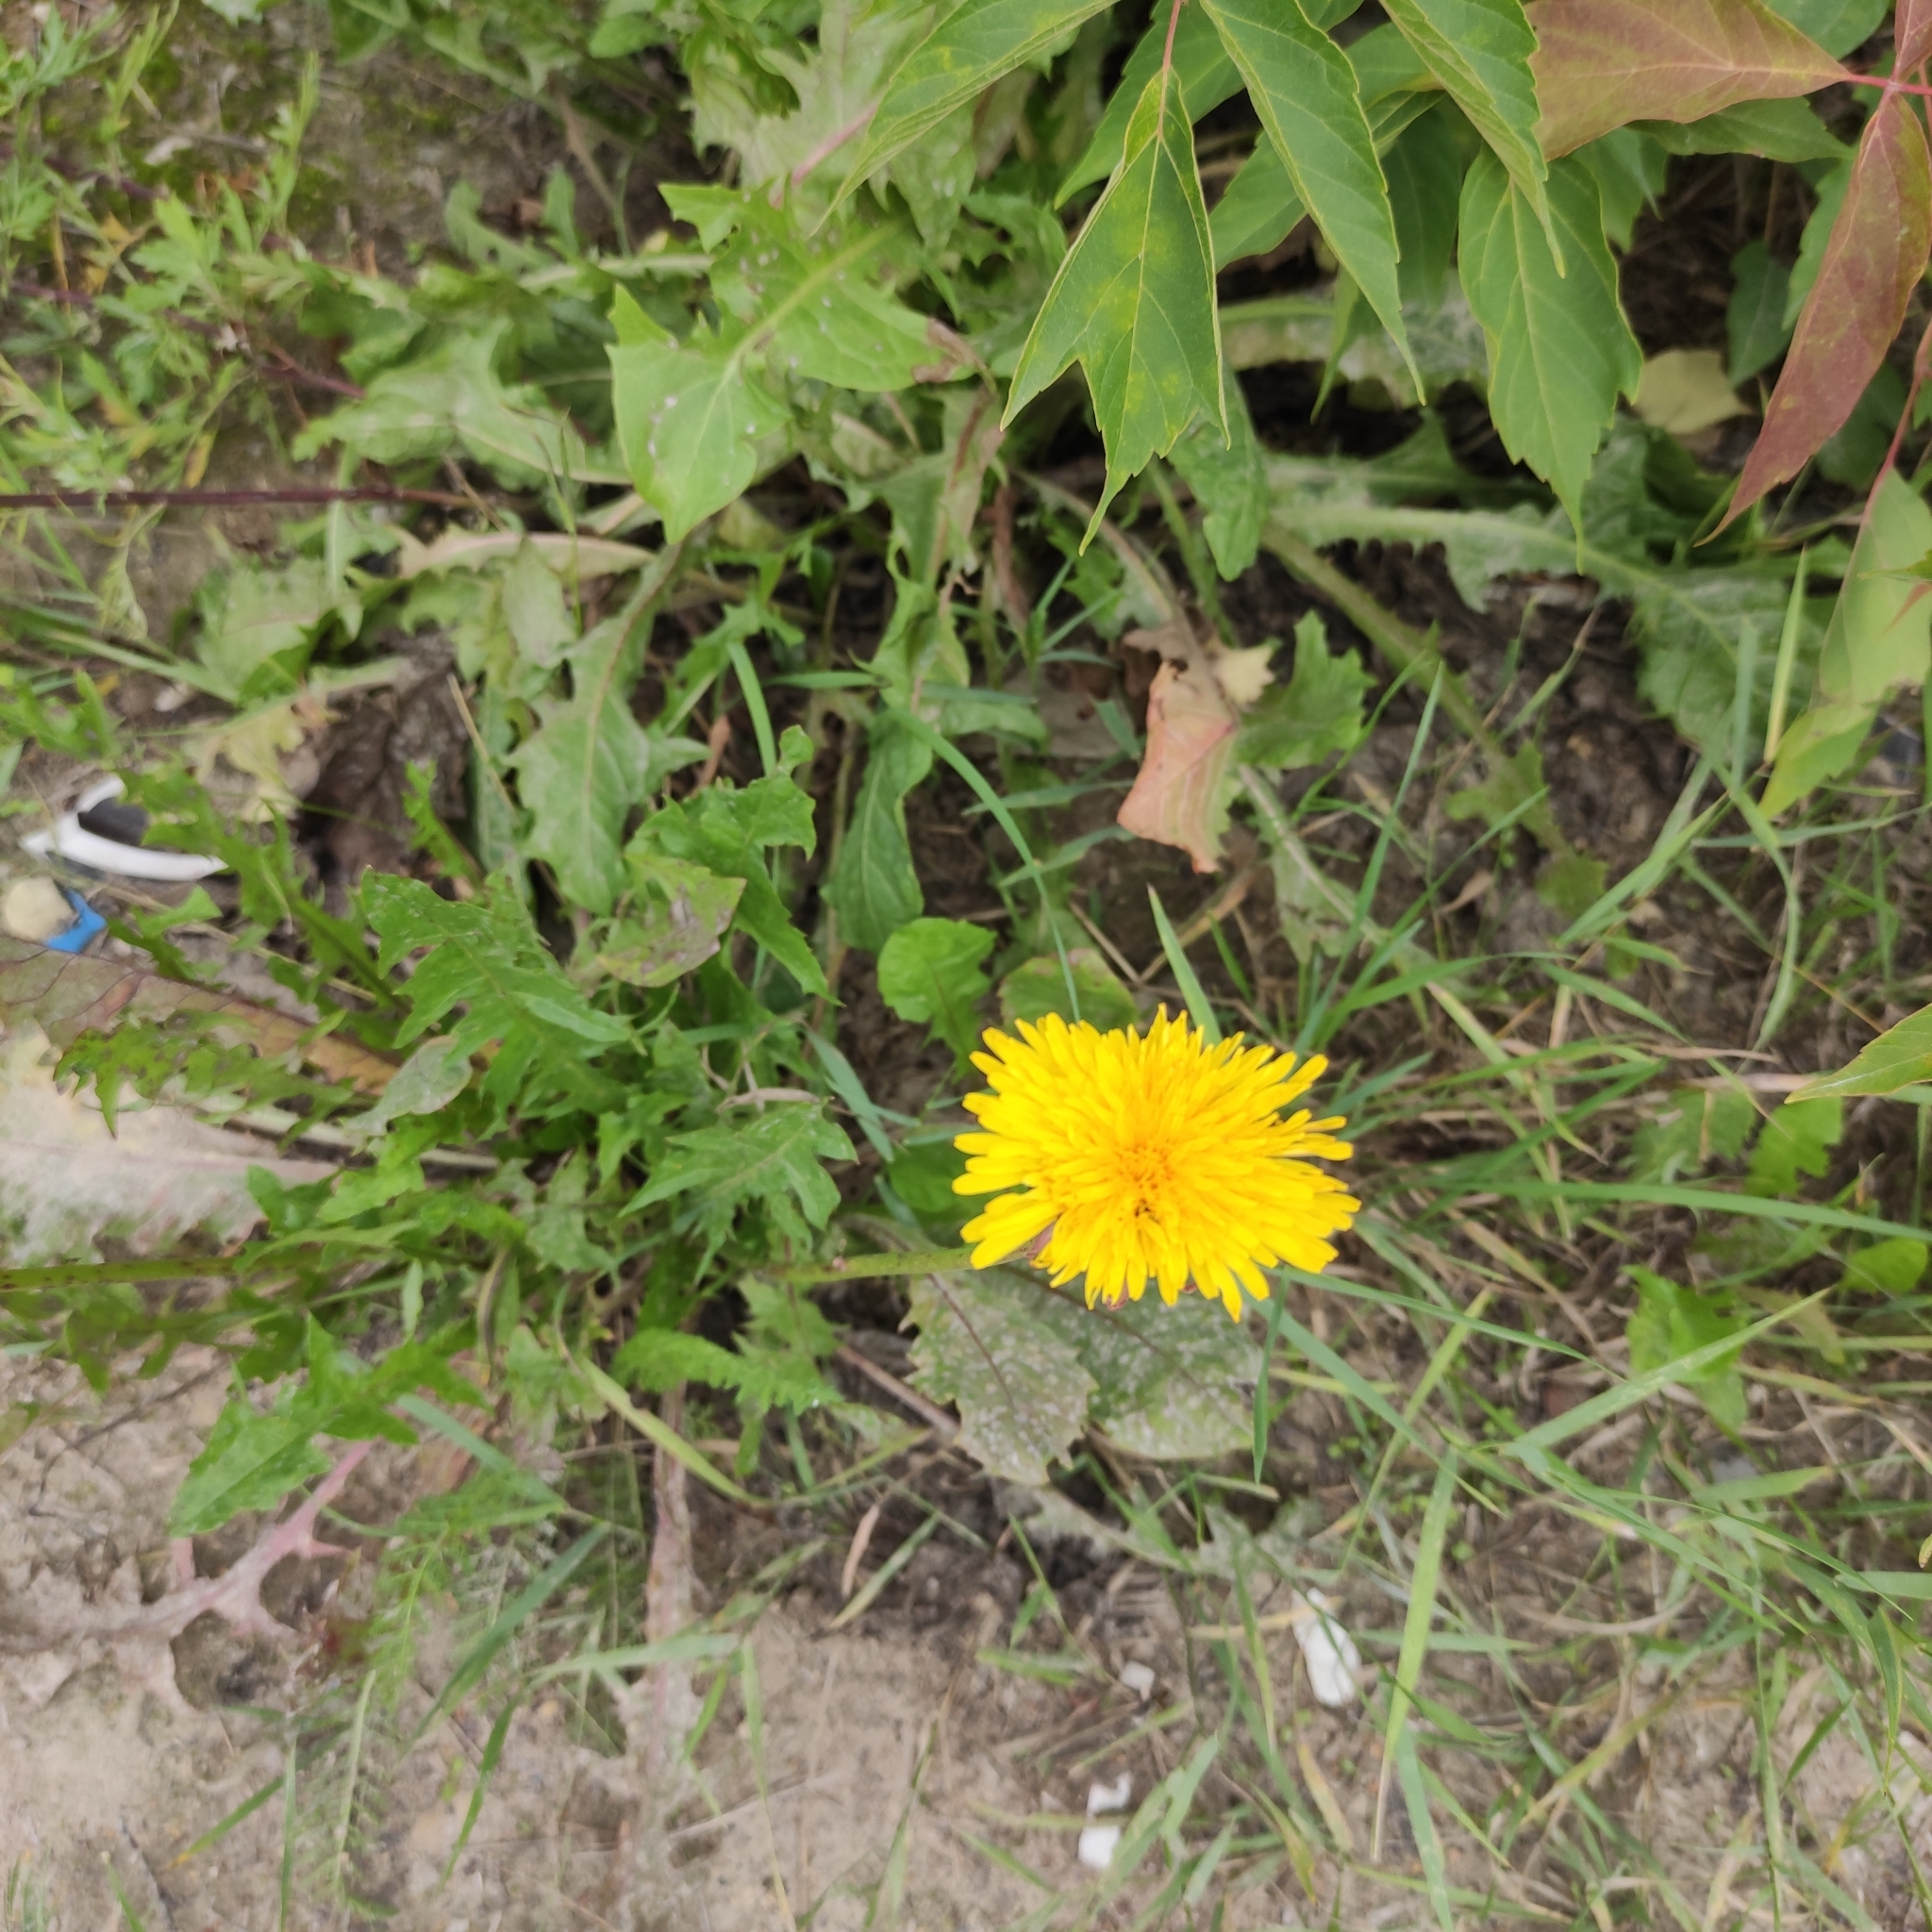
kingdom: Plantae
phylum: Tracheophyta
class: Magnoliopsida
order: Asterales
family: Asteraceae
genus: Taraxacum
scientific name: Taraxacum officinale
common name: Common dandelion
